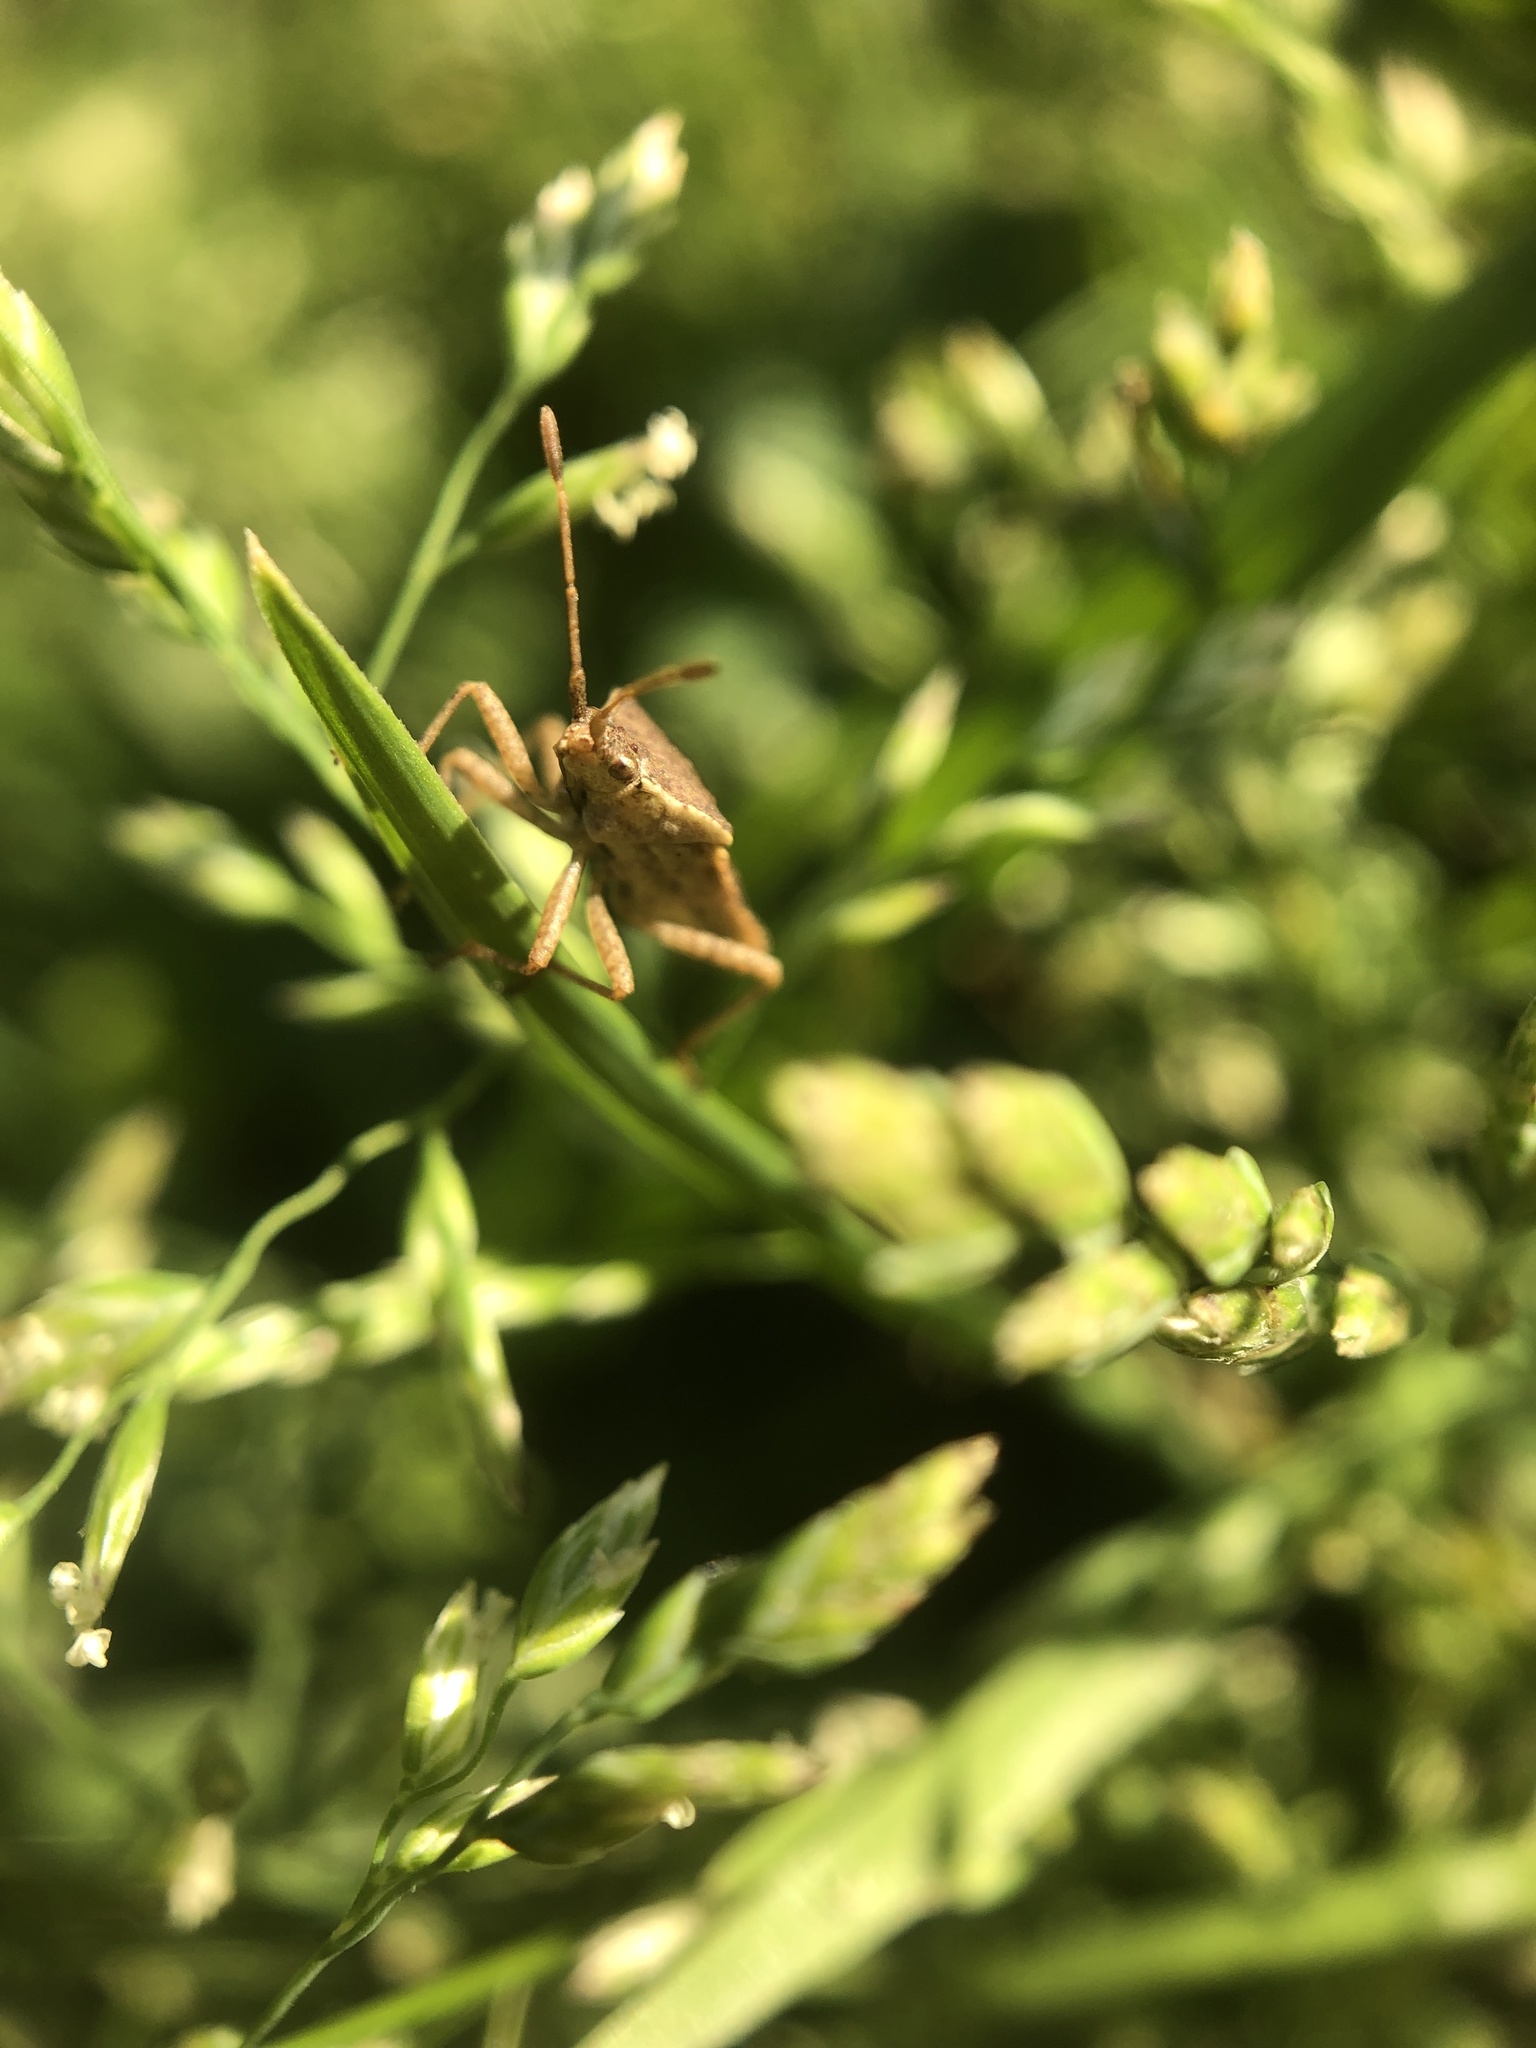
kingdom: Animalia
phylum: Arthropoda
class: Insecta
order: Hemiptera
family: Coreidae
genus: Althos
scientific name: Althos obscurator
